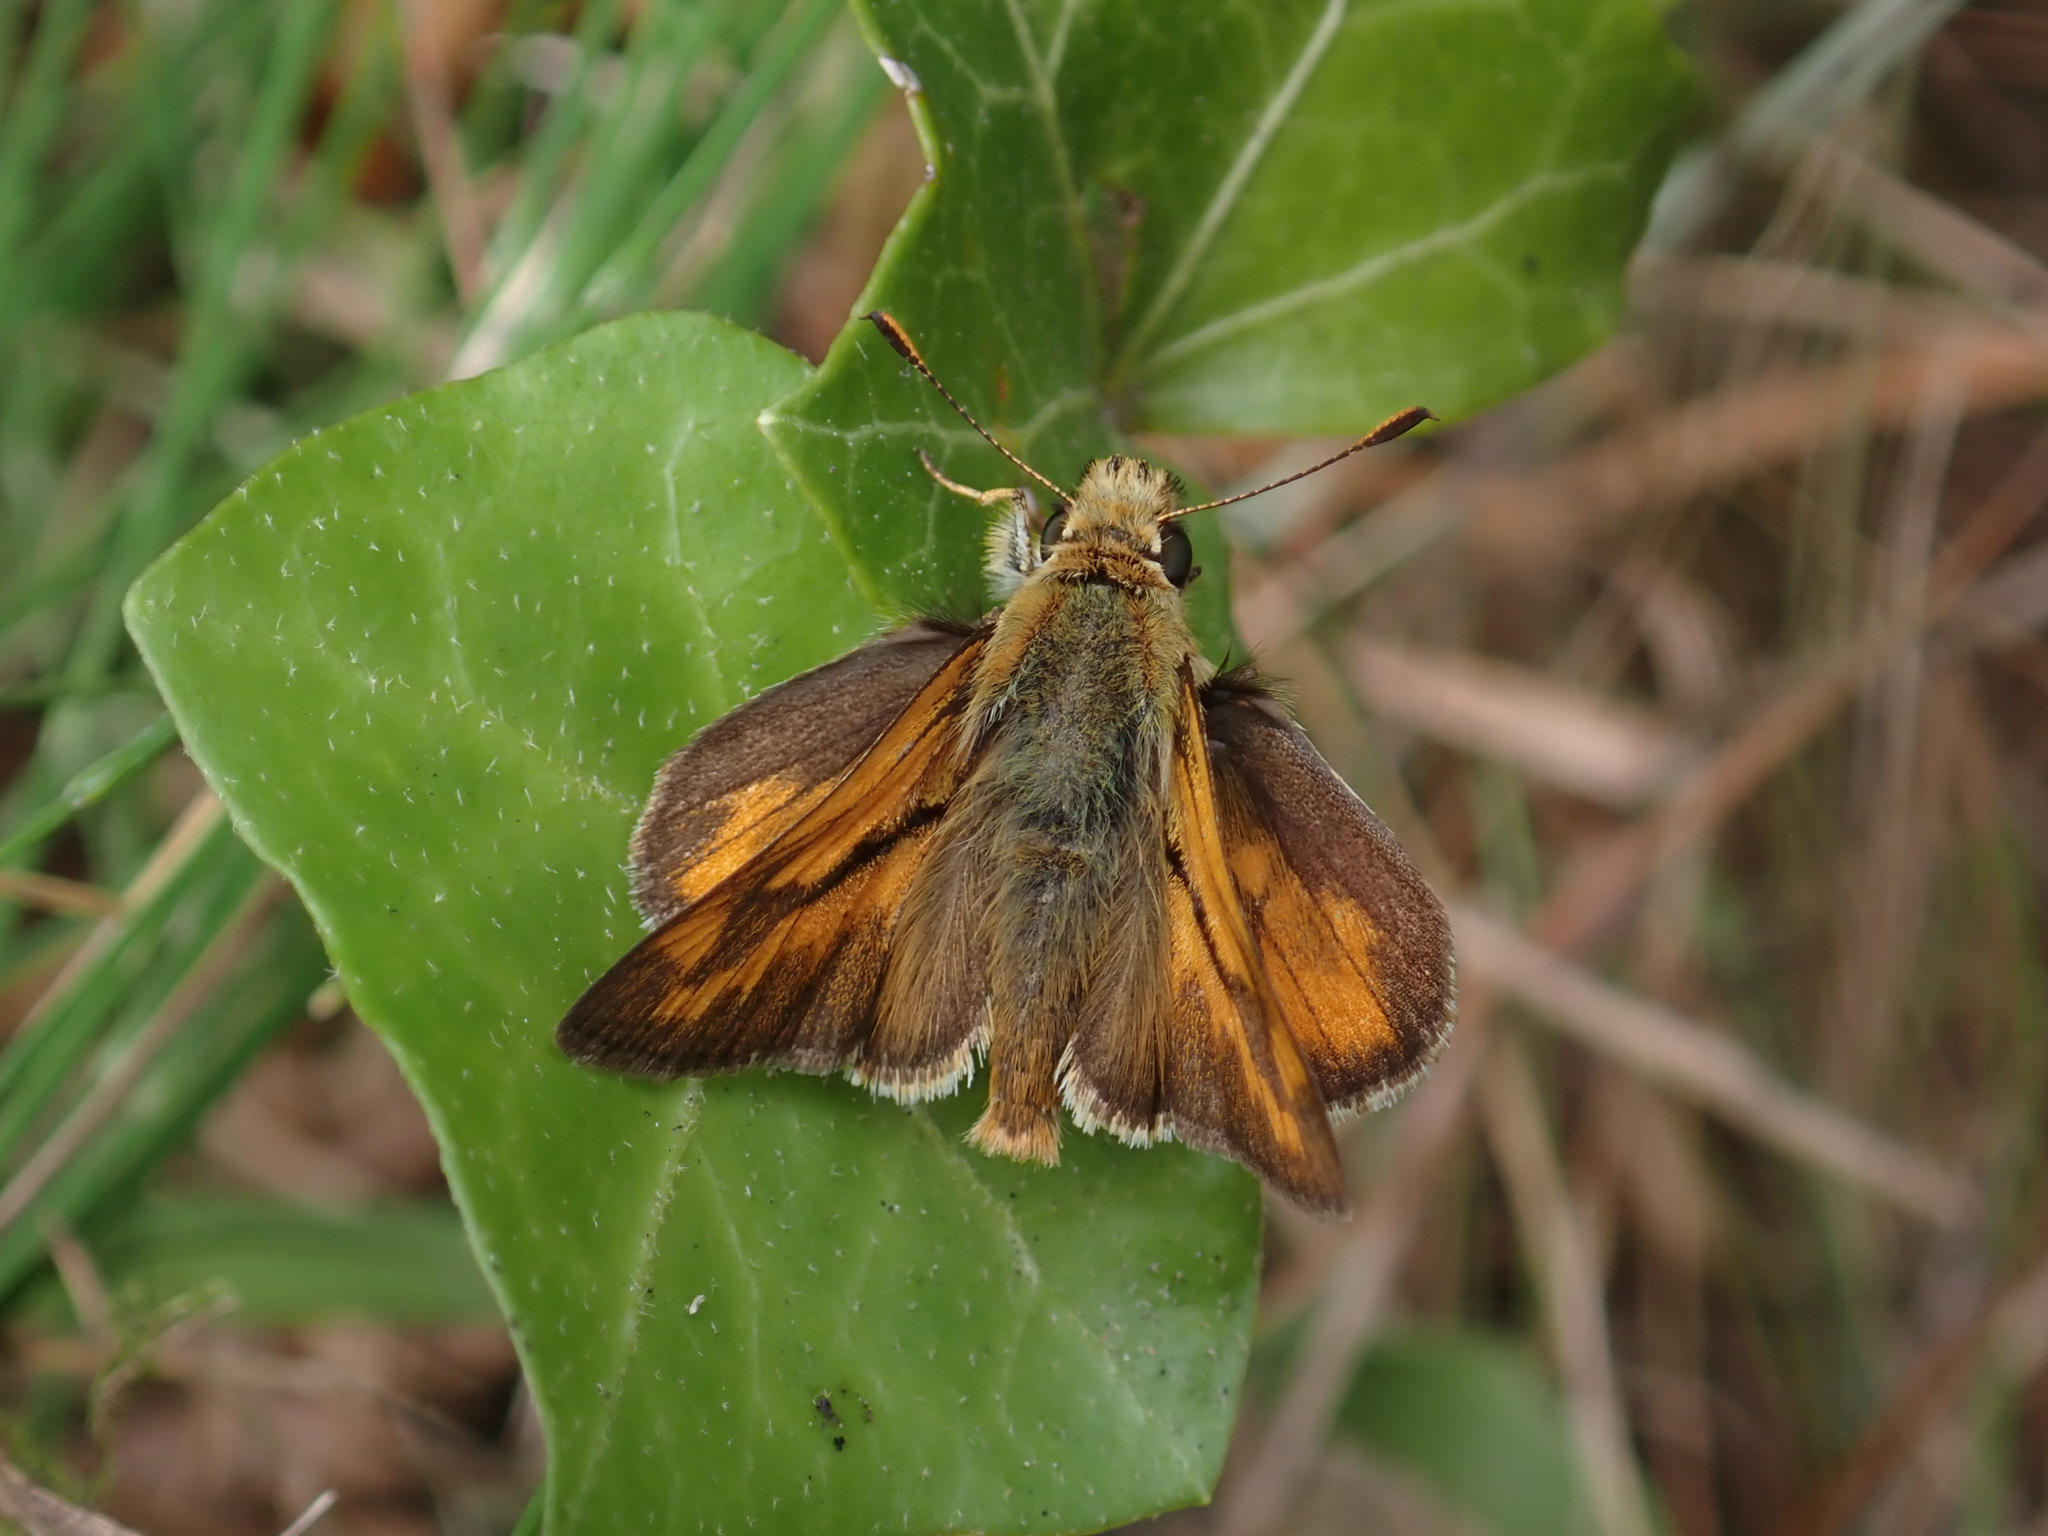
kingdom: Animalia
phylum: Arthropoda
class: Insecta
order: Lepidoptera
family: Hesperiidae
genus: Ochlodes
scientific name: Ochlodes sylvanoides
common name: Woodland skipper
